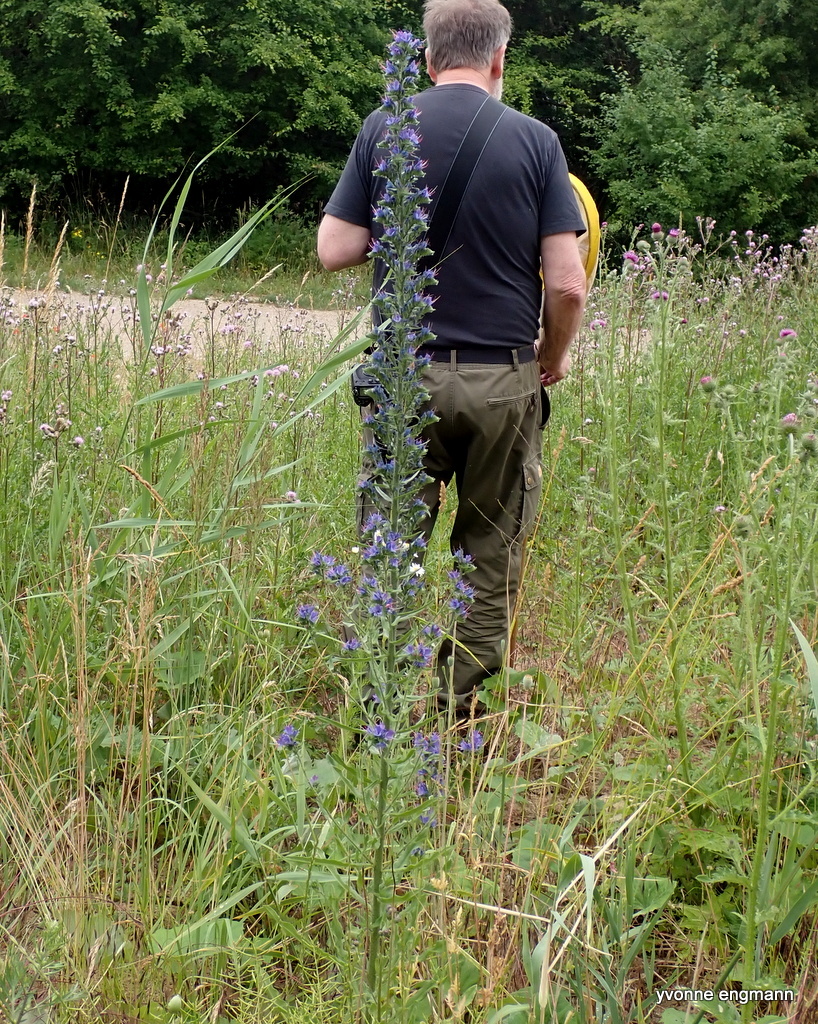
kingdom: Plantae
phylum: Tracheophyta
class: Magnoliopsida
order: Boraginales
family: Boraginaceae
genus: Echium
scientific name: Echium vulgare
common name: Common viper's bugloss
